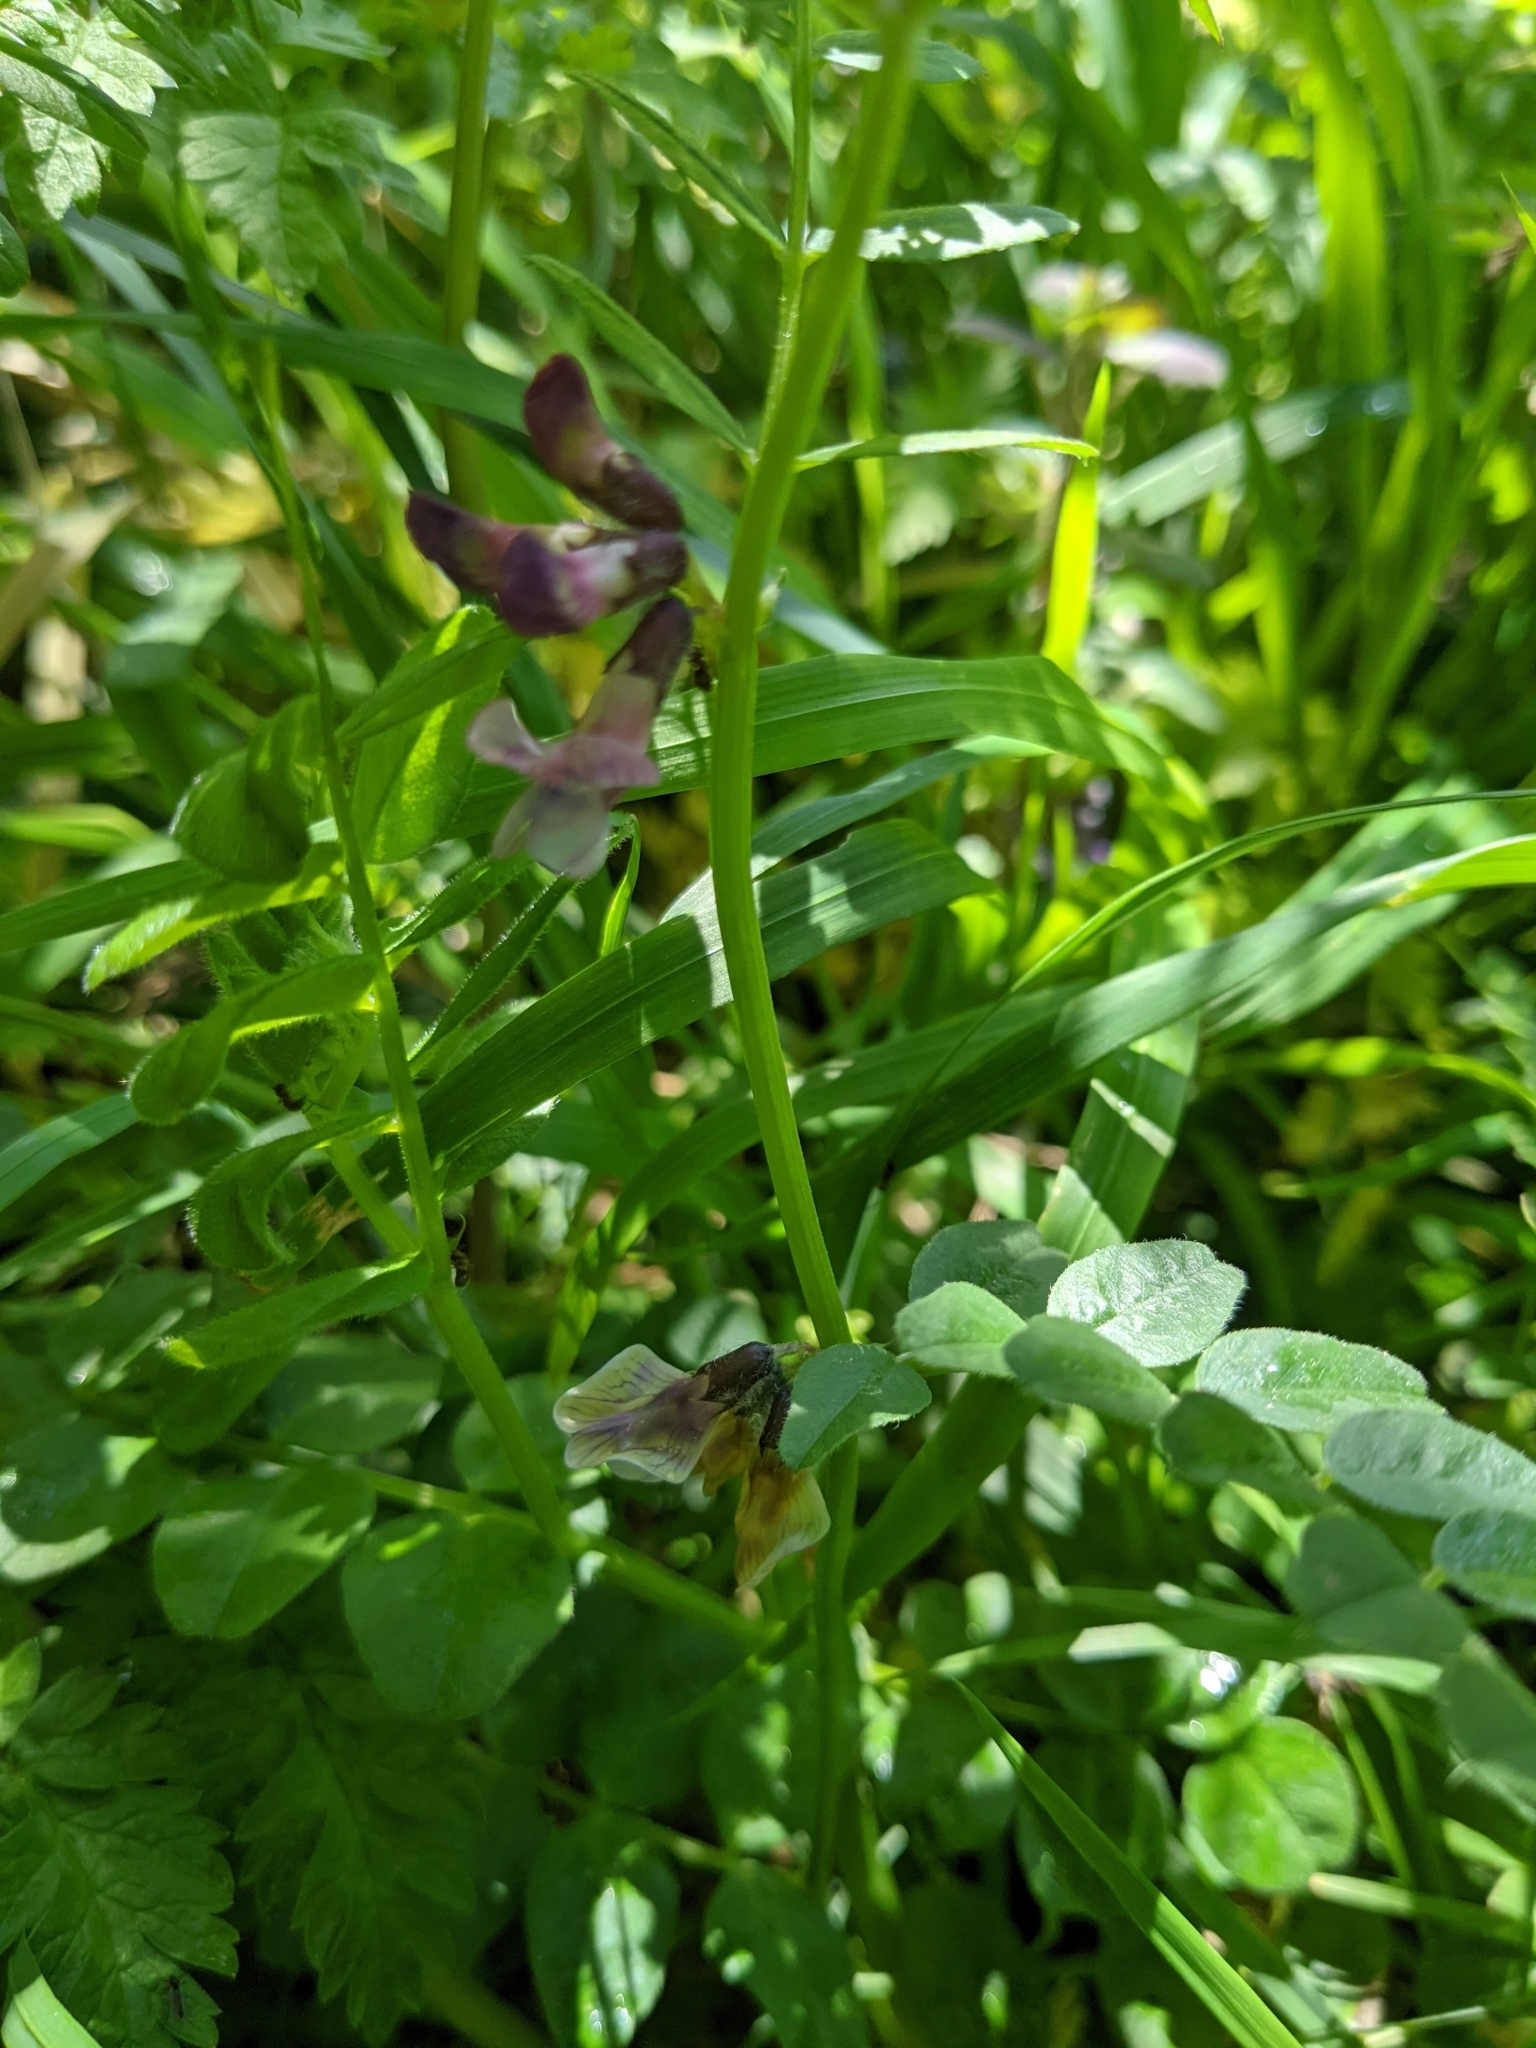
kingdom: Plantae
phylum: Tracheophyta
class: Magnoliopsida
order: Fabales
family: Fabaceae
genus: Vicia
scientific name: Vicia sepium
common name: Bush vetch
